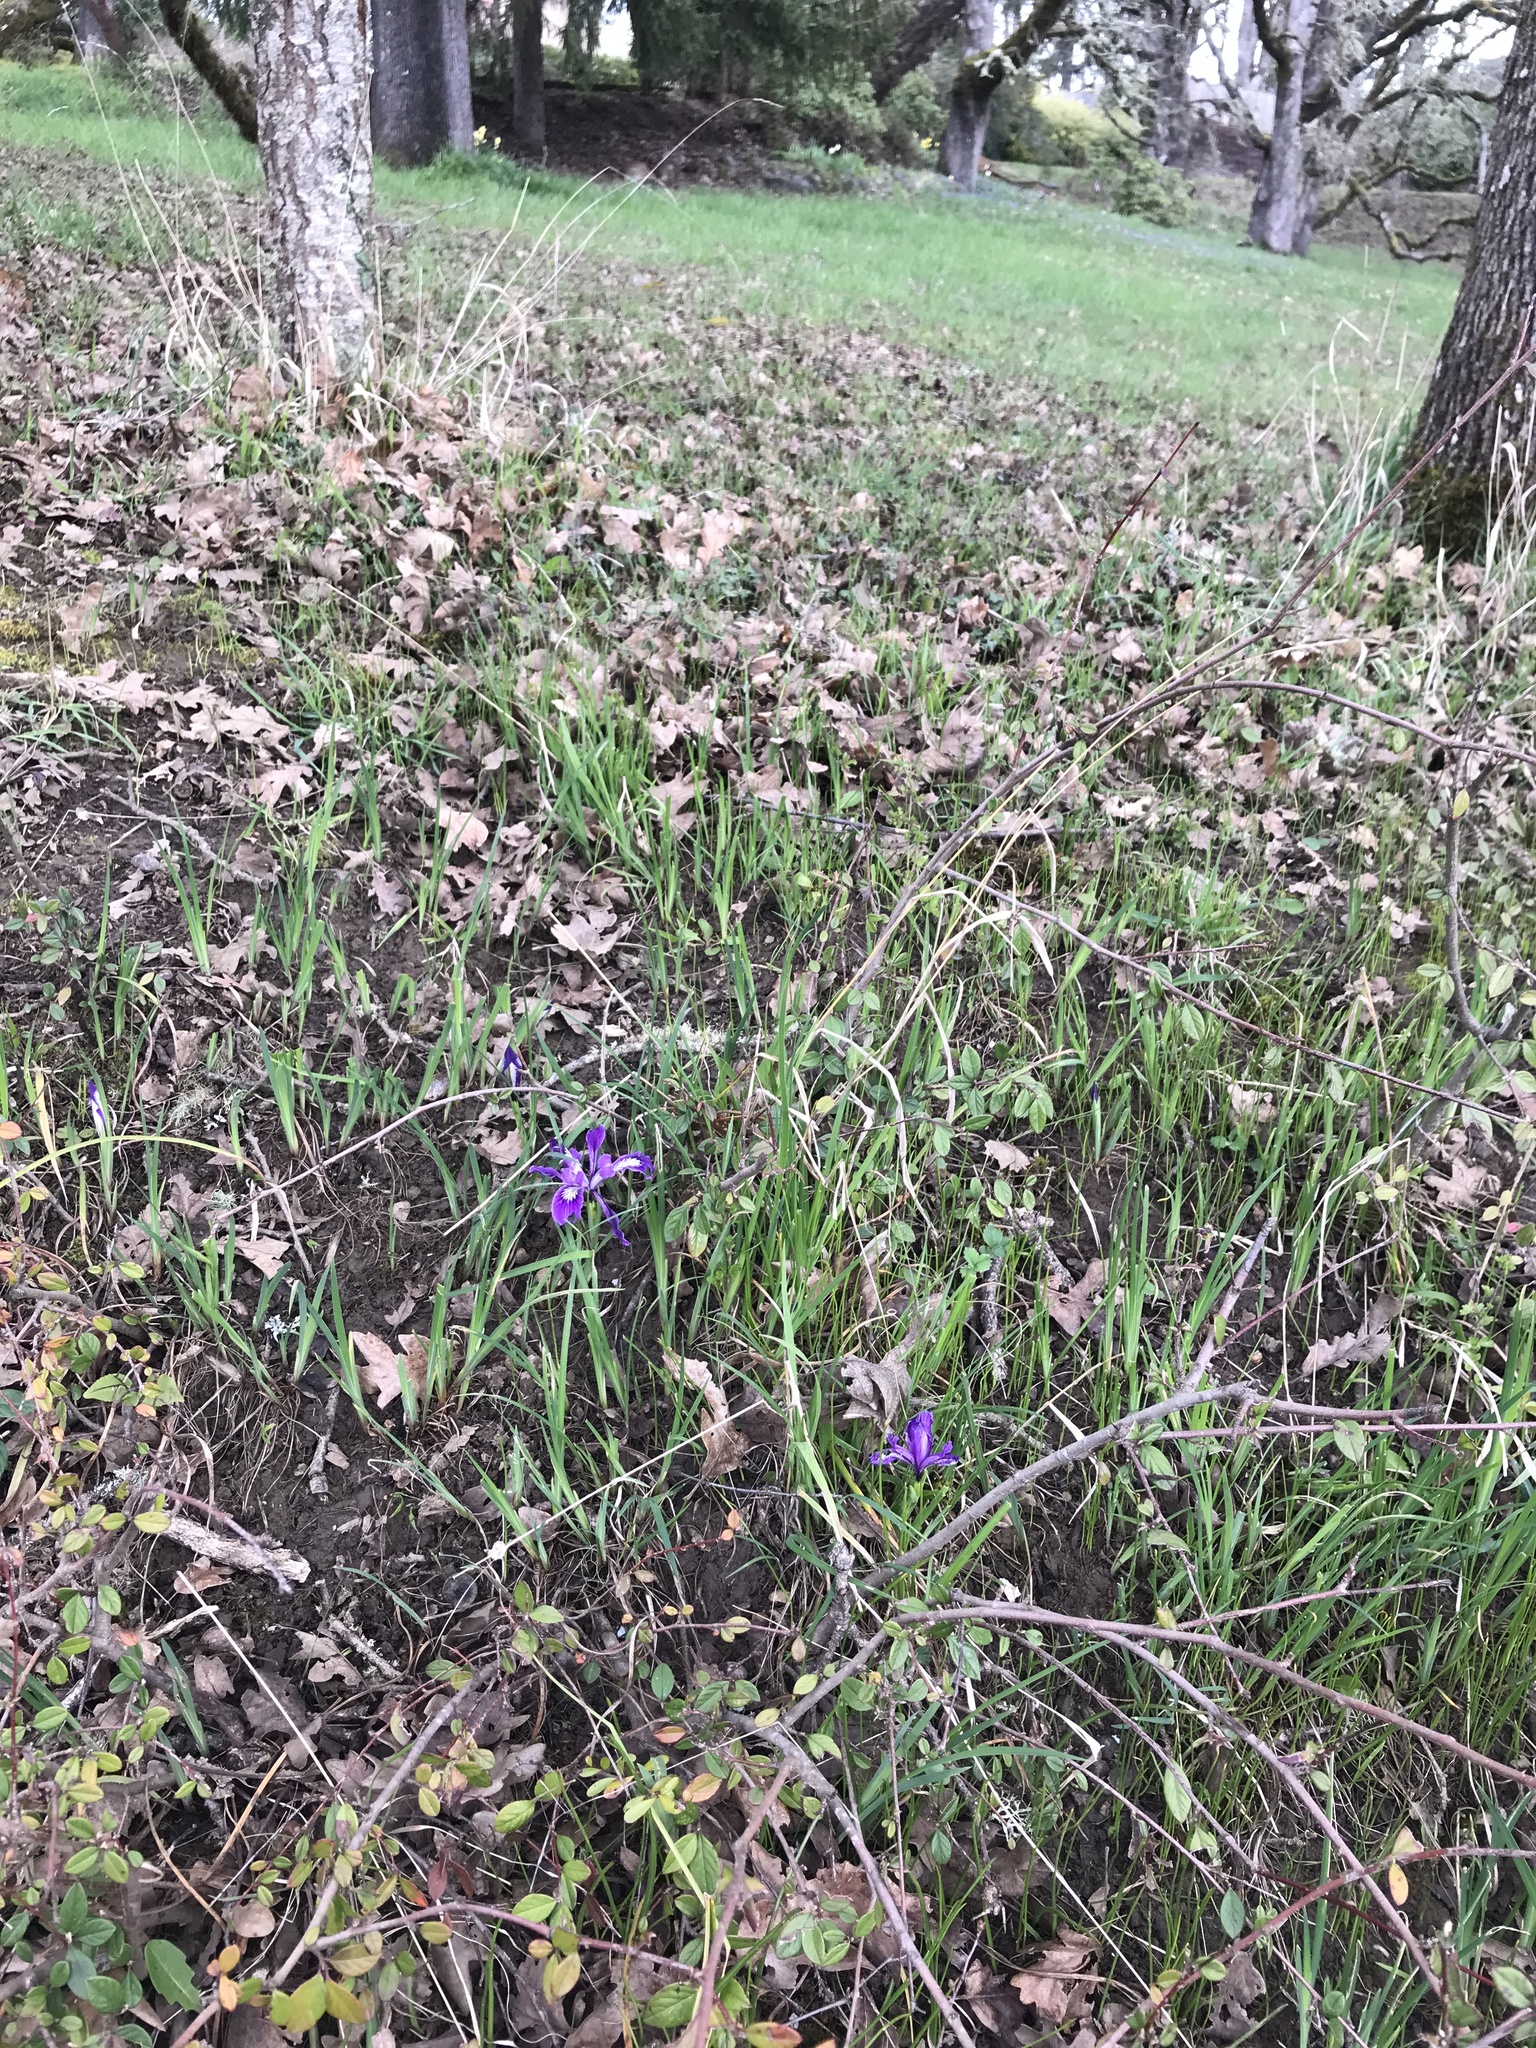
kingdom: Plantae
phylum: Tracheophyta
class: Liliopsida
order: Asparagales
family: Iridaceae
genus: Iris
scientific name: Iris tenax
